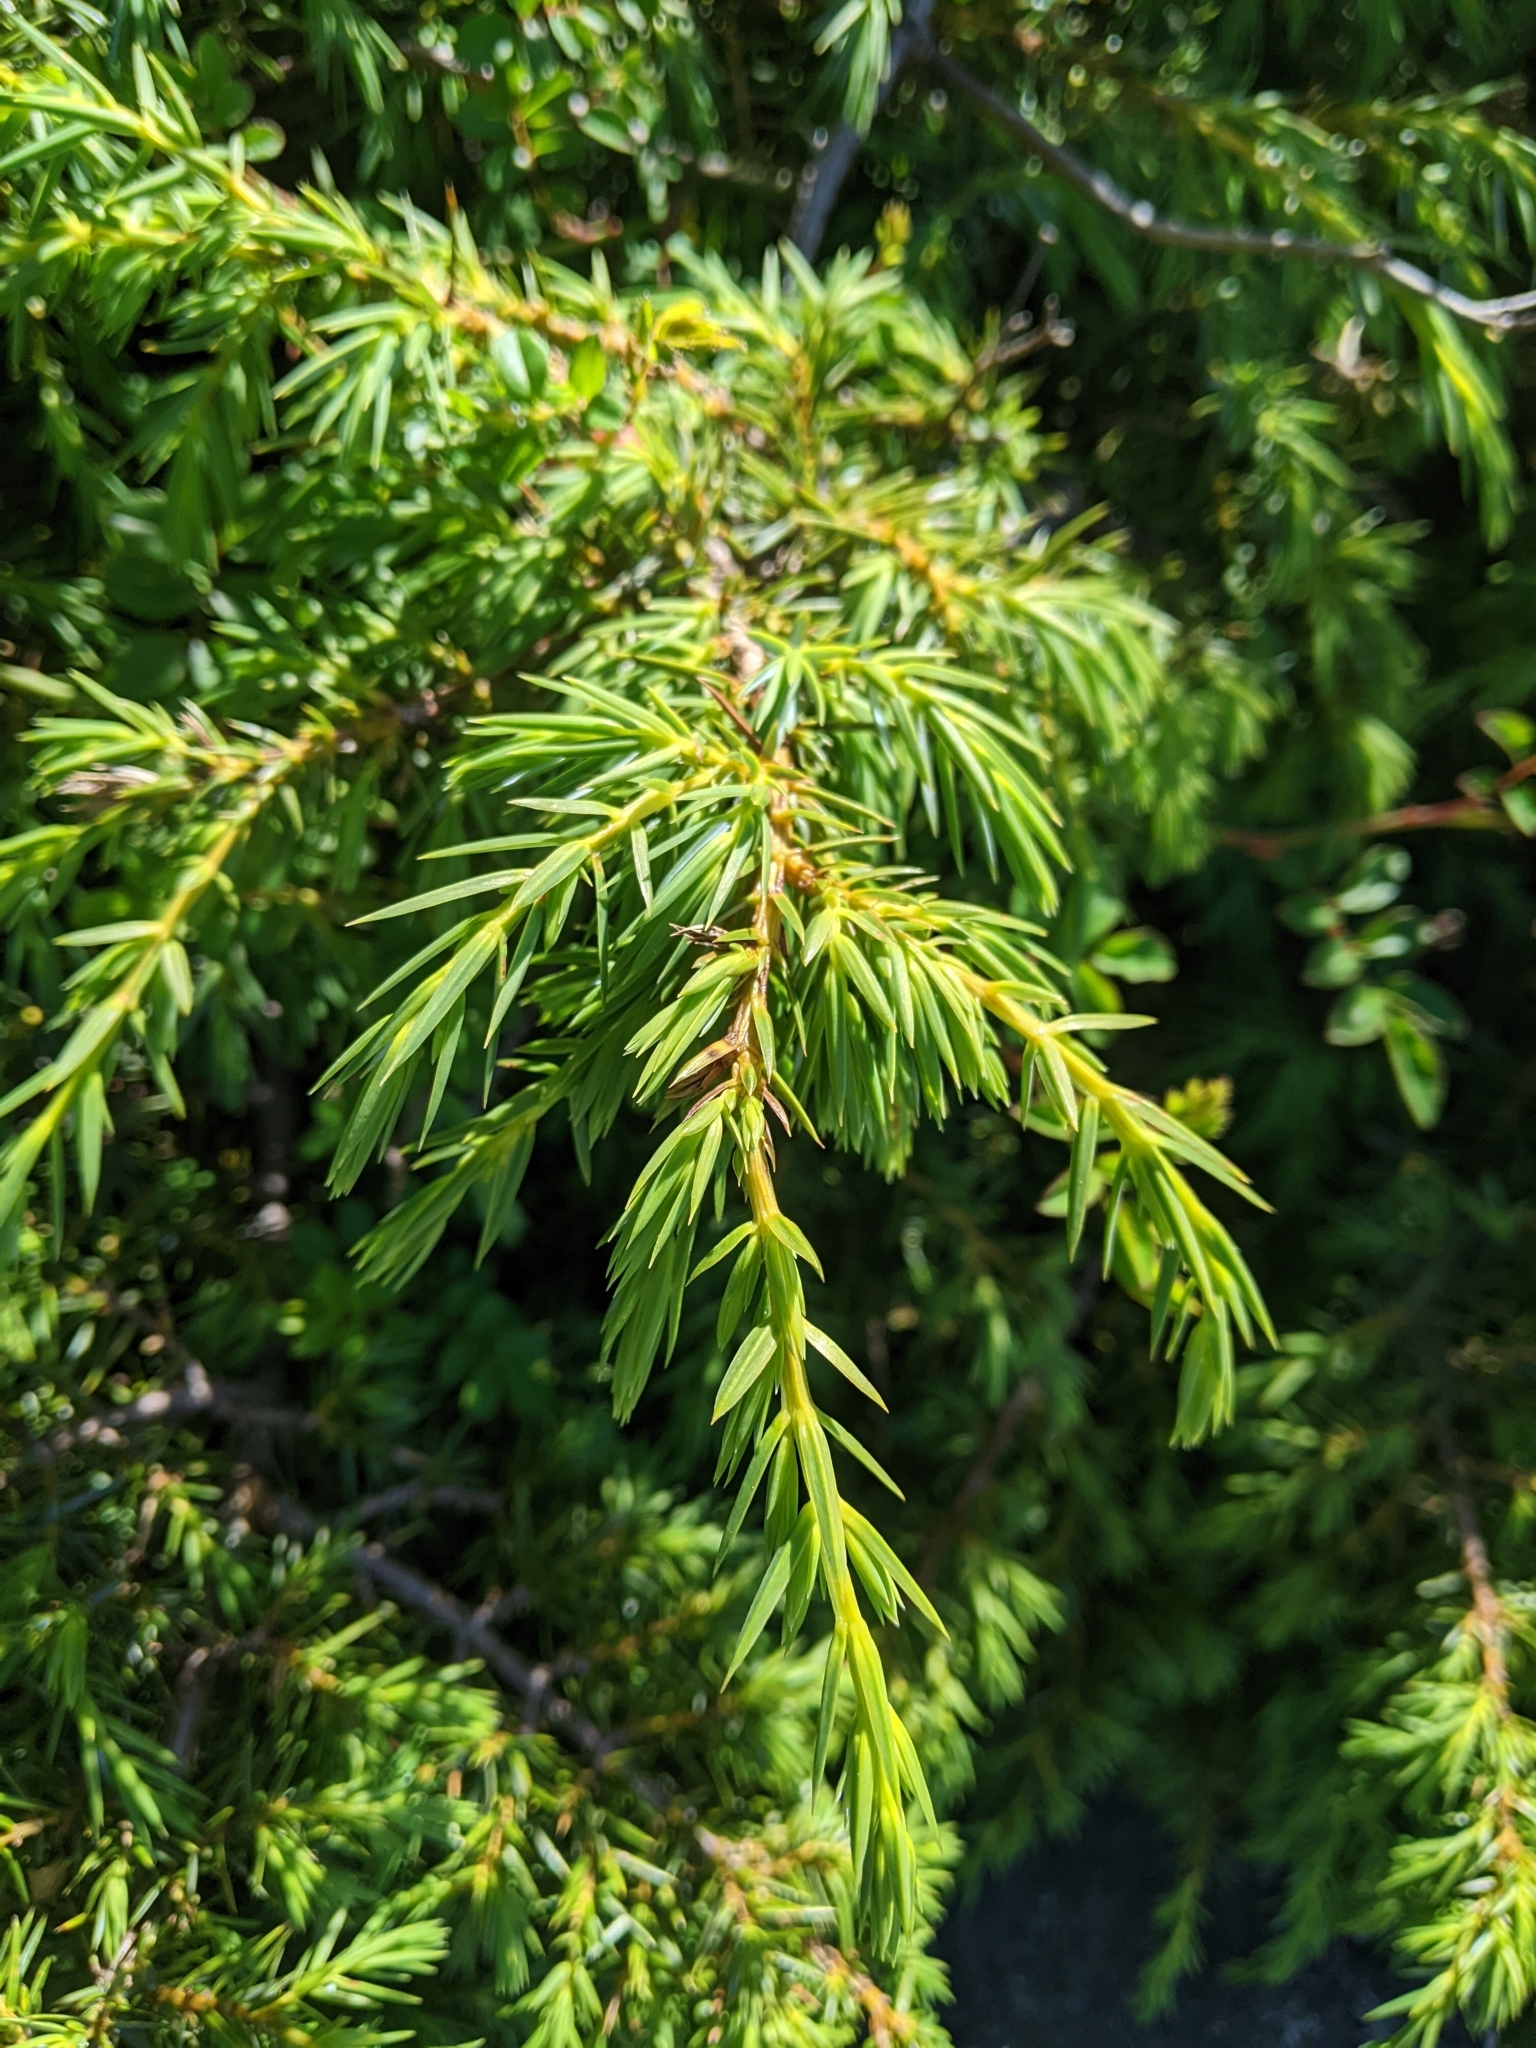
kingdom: Plantae
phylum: Tracheophyta
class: Pinopsida
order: Pinales
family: Cupressaceae
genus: Juniperus
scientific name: Juniperus formosana
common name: Formosan juniper
